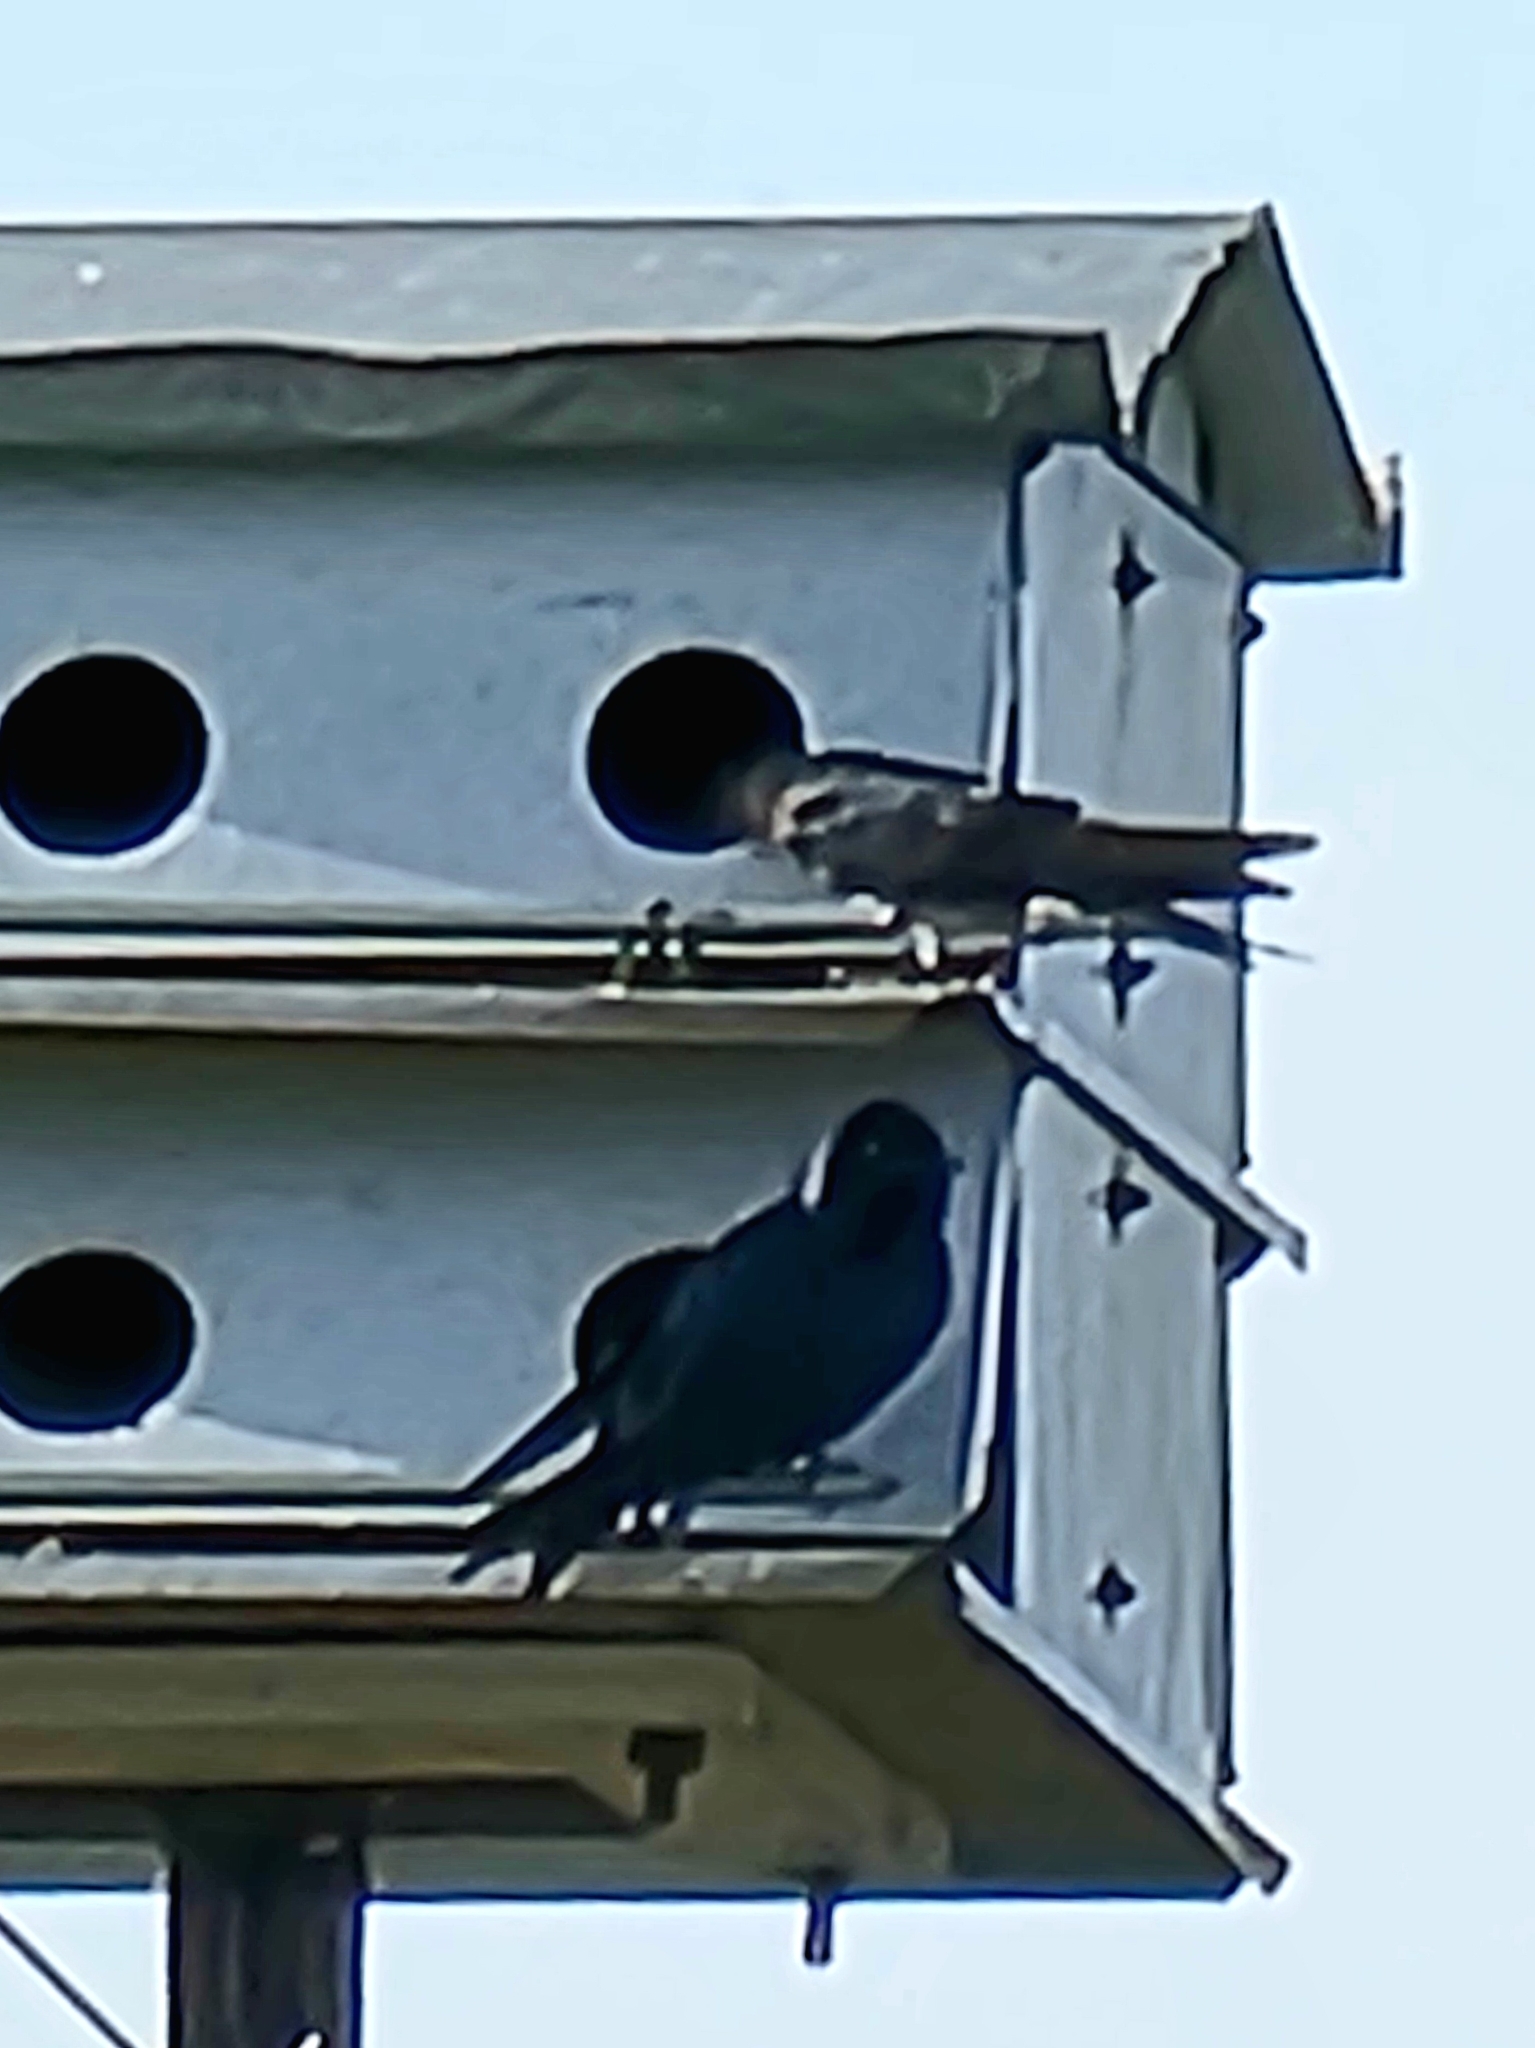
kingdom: Animalia
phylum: Chordata
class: Aves
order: Passeriformes
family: Hirundinidae
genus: Progne
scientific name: Progne subis
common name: Purple martin
